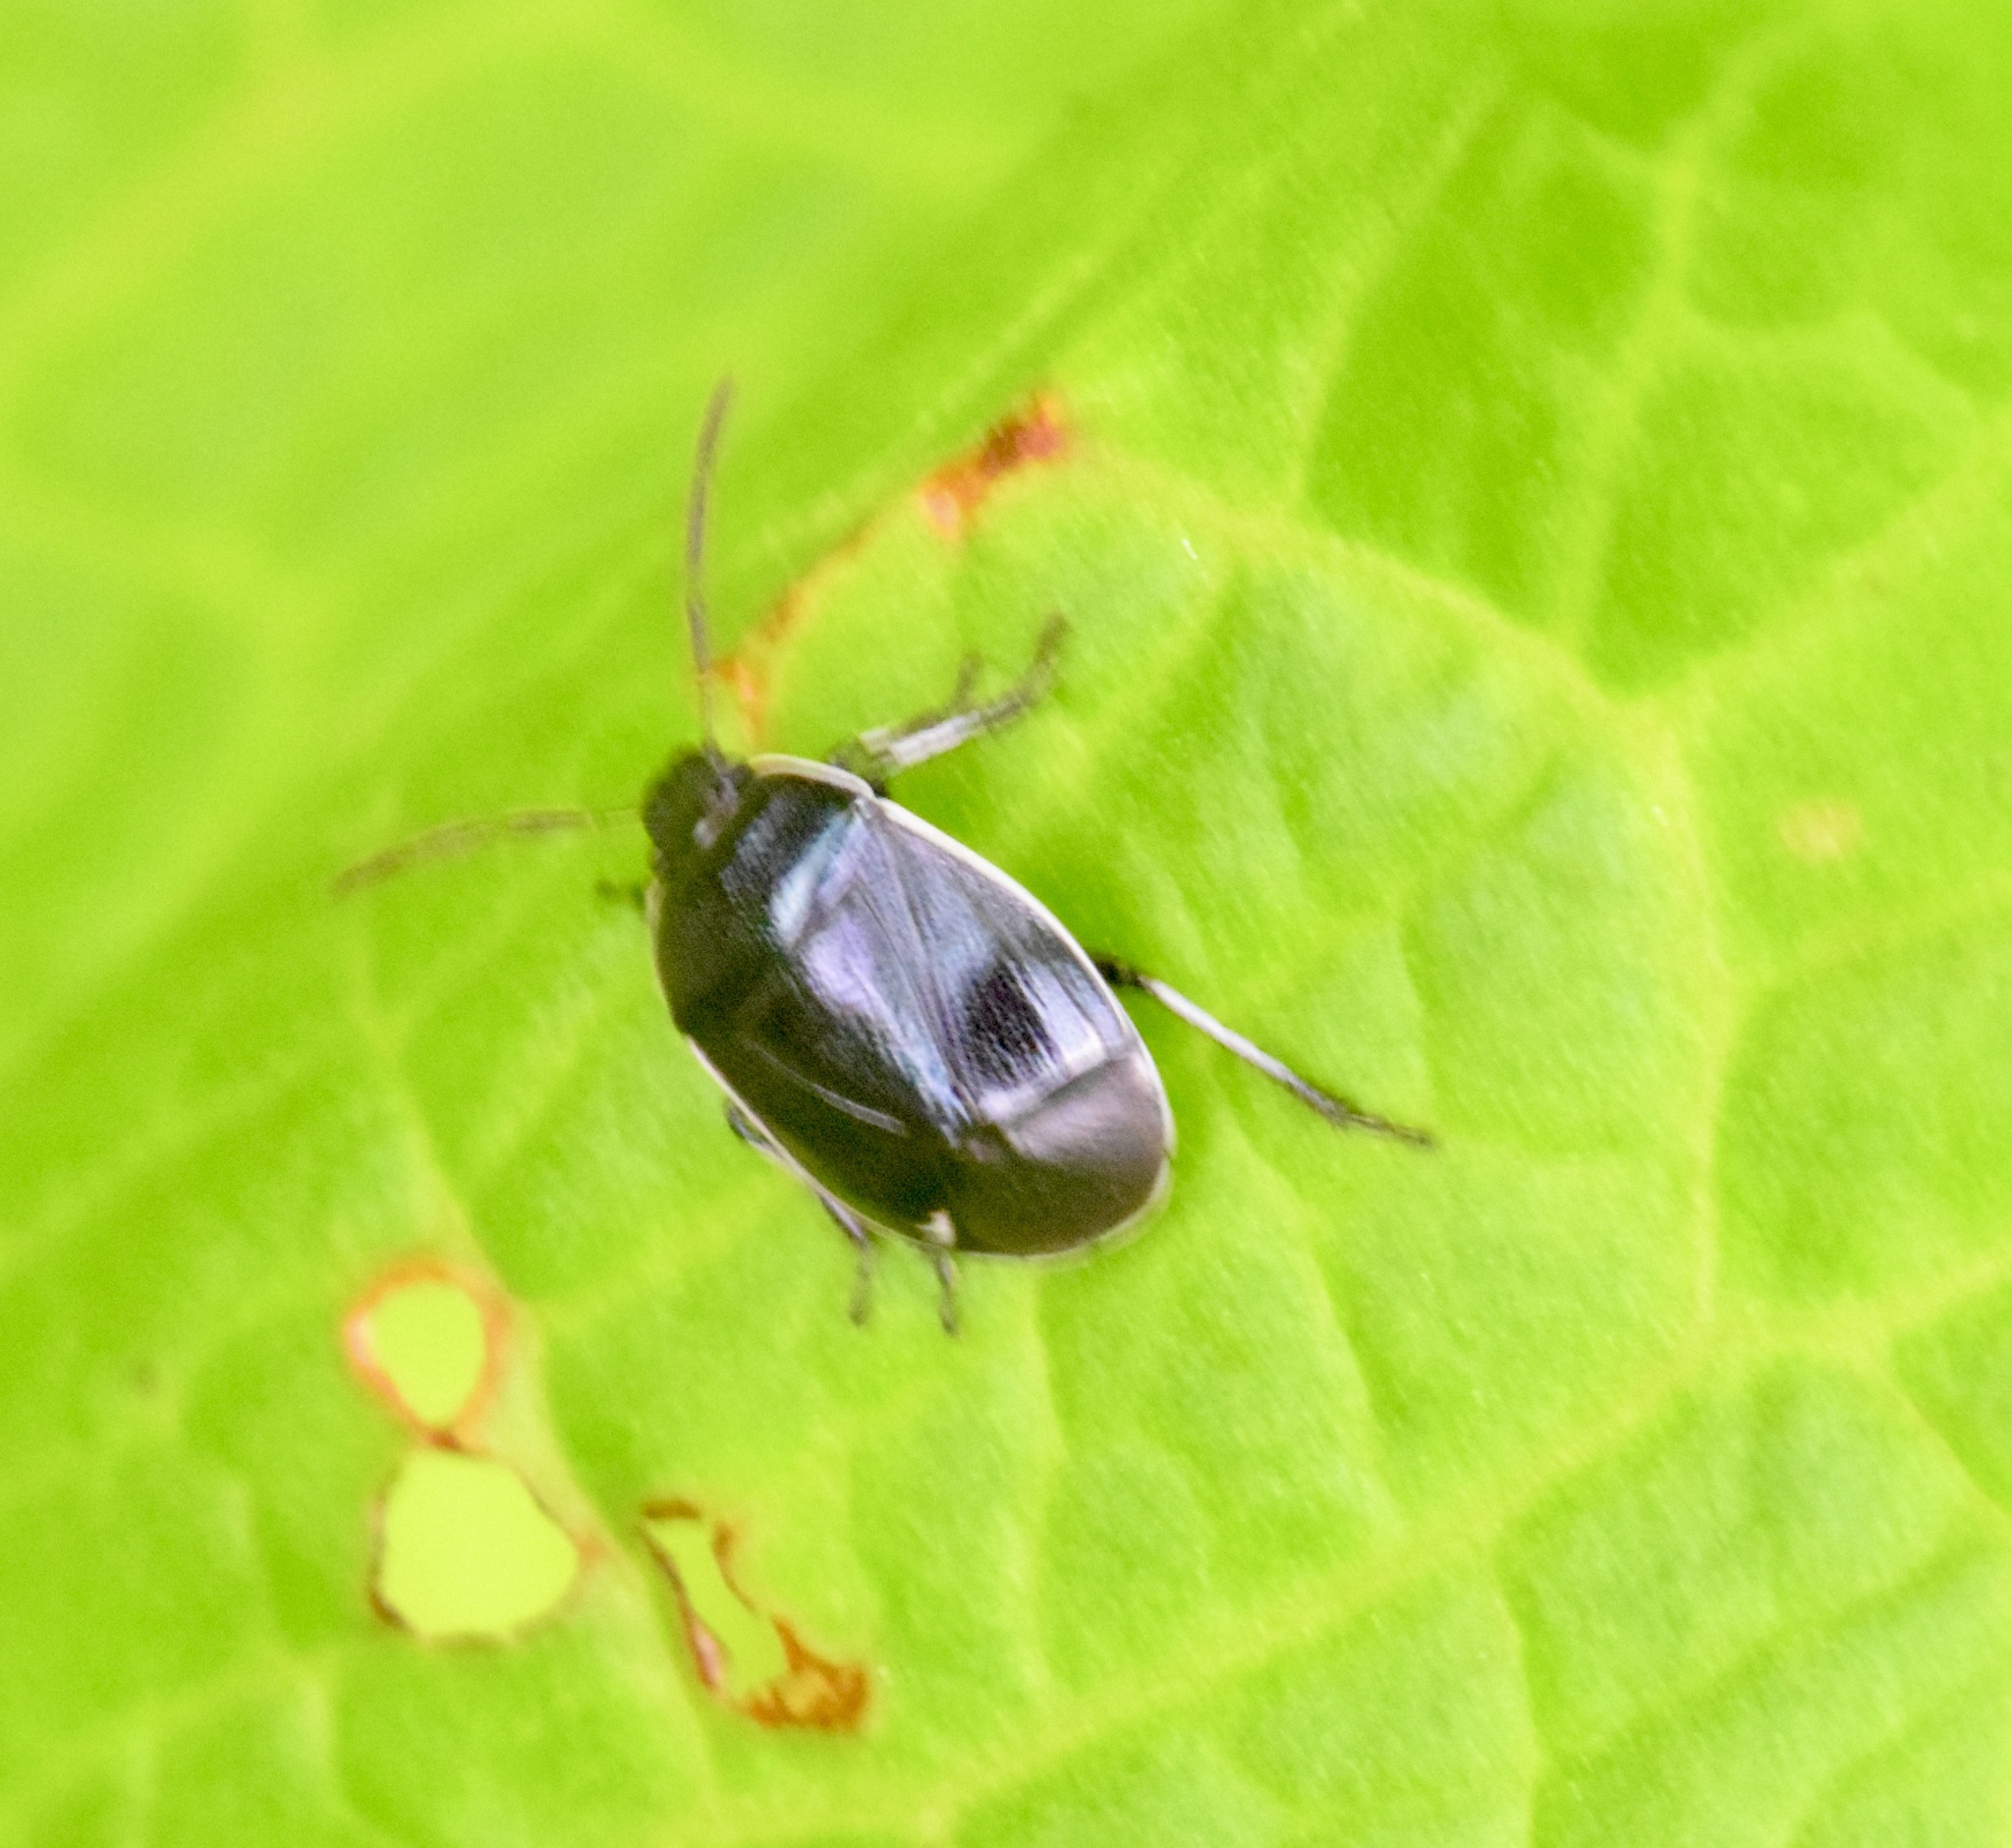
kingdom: Animalia
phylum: Arthropoda
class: Insecta
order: Hemiptera
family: Cydnidae
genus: Sehirus
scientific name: Sehirus cinctus
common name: White-margined burrower bug
